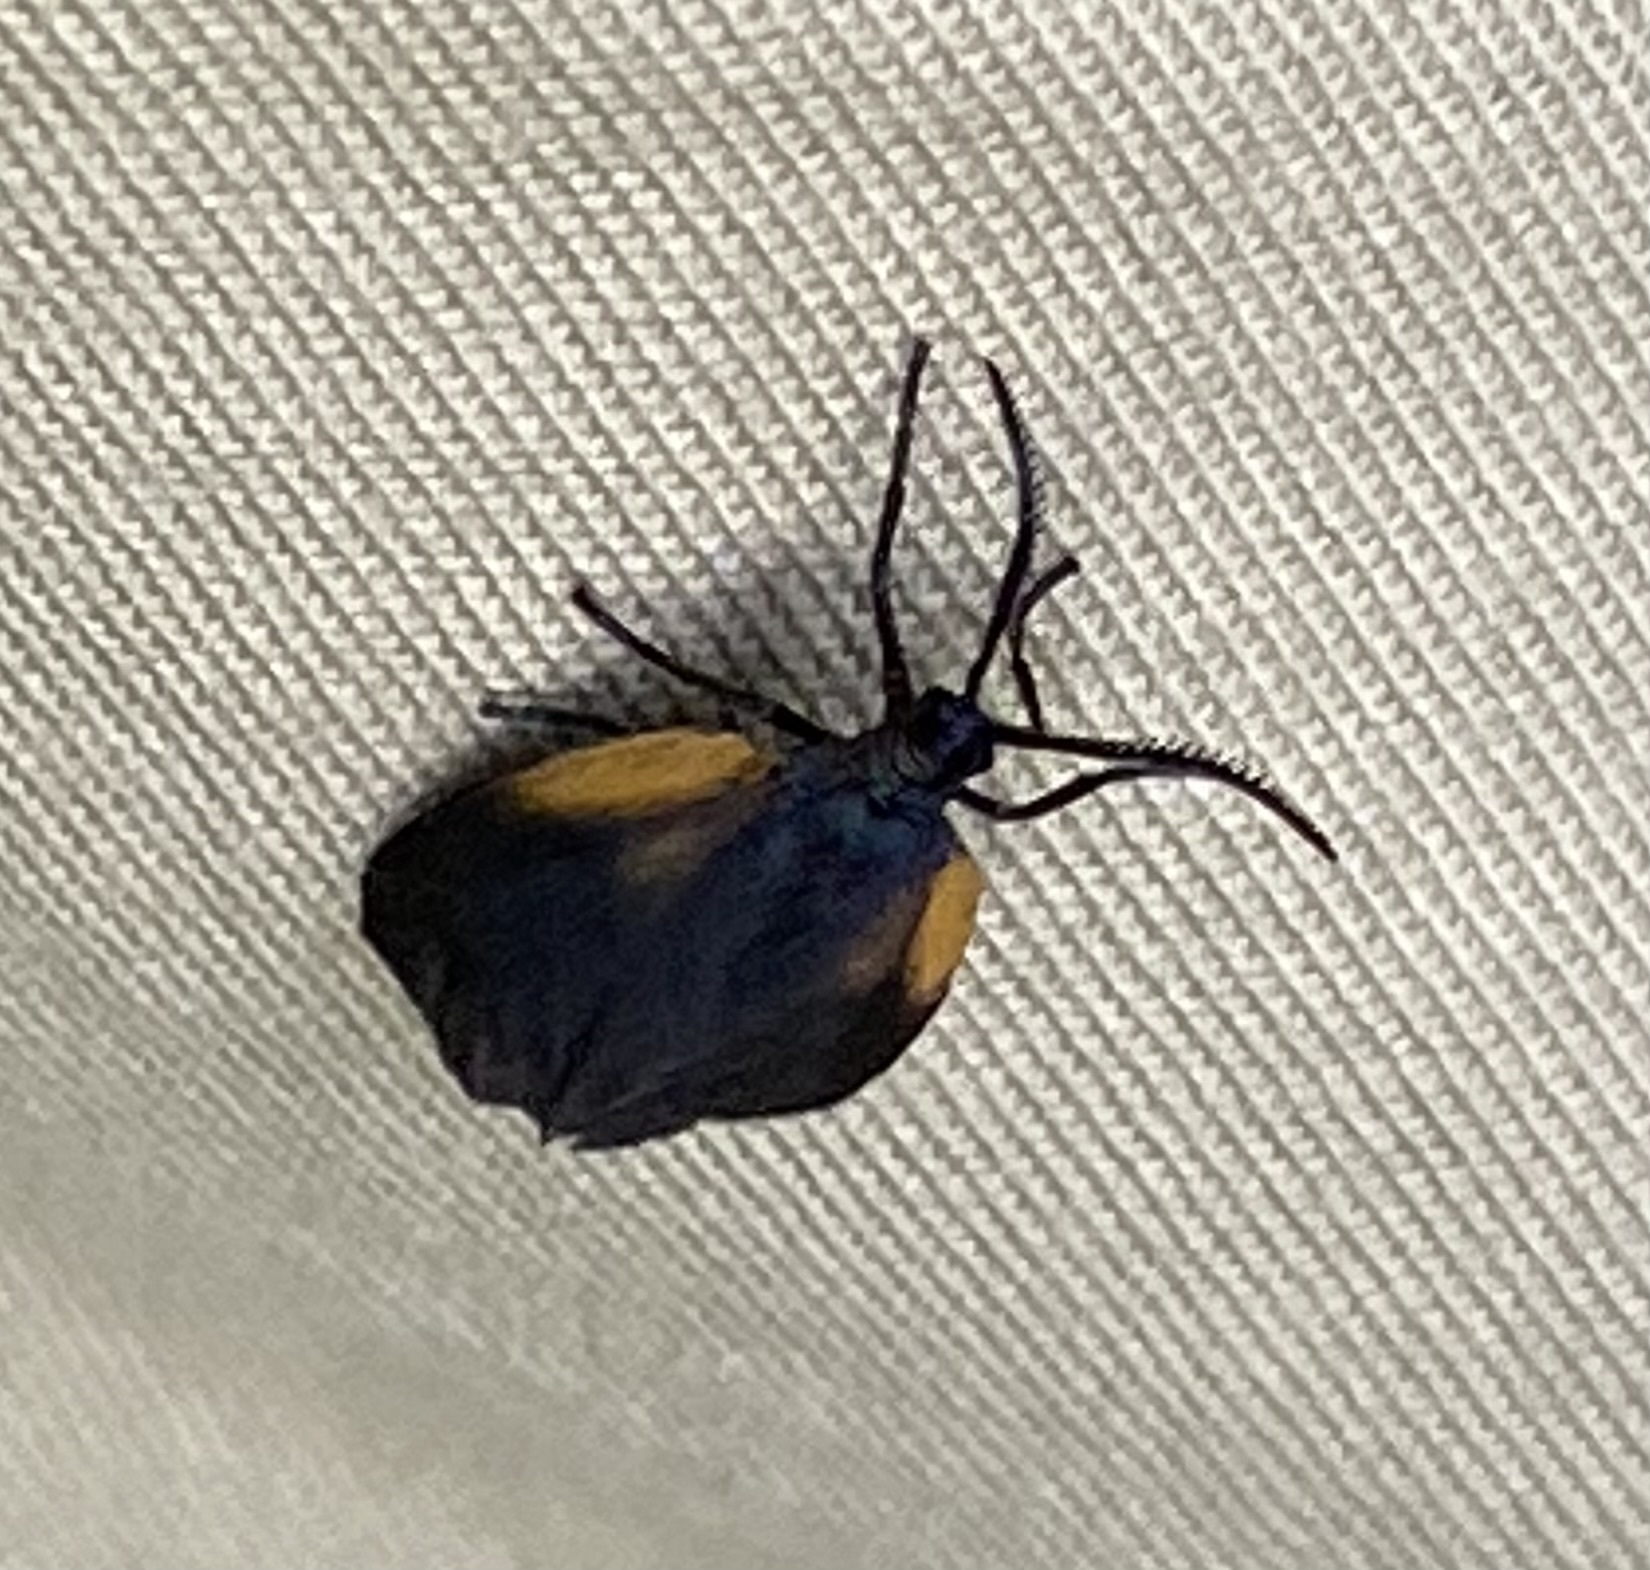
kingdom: Animalia
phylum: Arthropoda
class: Insecta
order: Lepidoptera
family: Zygaenidae
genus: Malthaca
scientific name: Malthaca dimidiata
